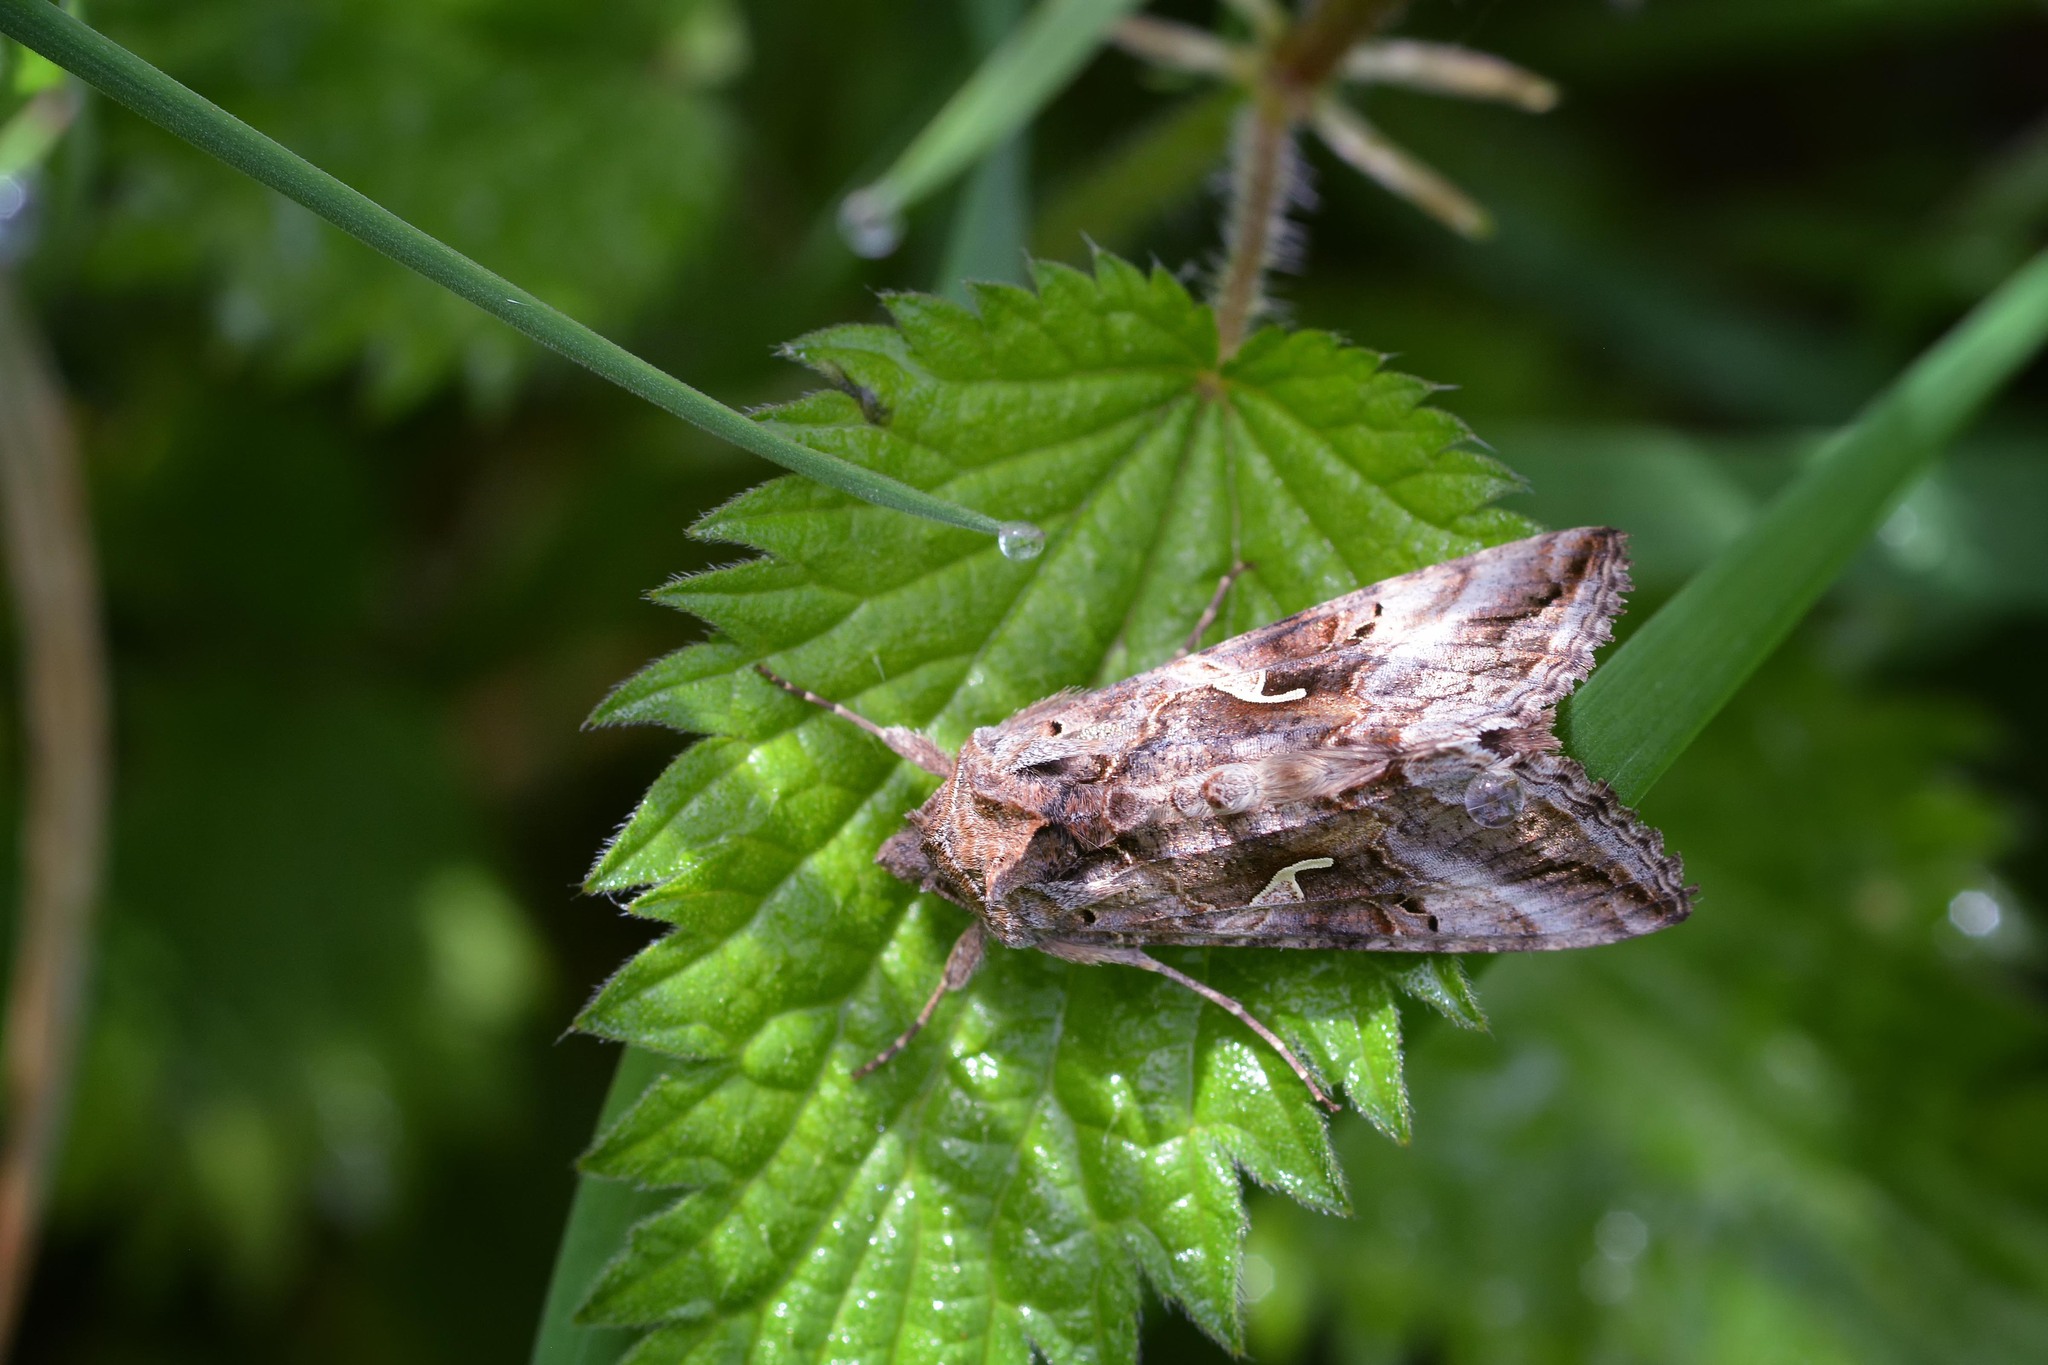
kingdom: Animalia
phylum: Arthropoda
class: Insecta
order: Lepidoptera
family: Noctuidae
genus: Autographa
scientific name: Autographa gamma
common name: Silver y
